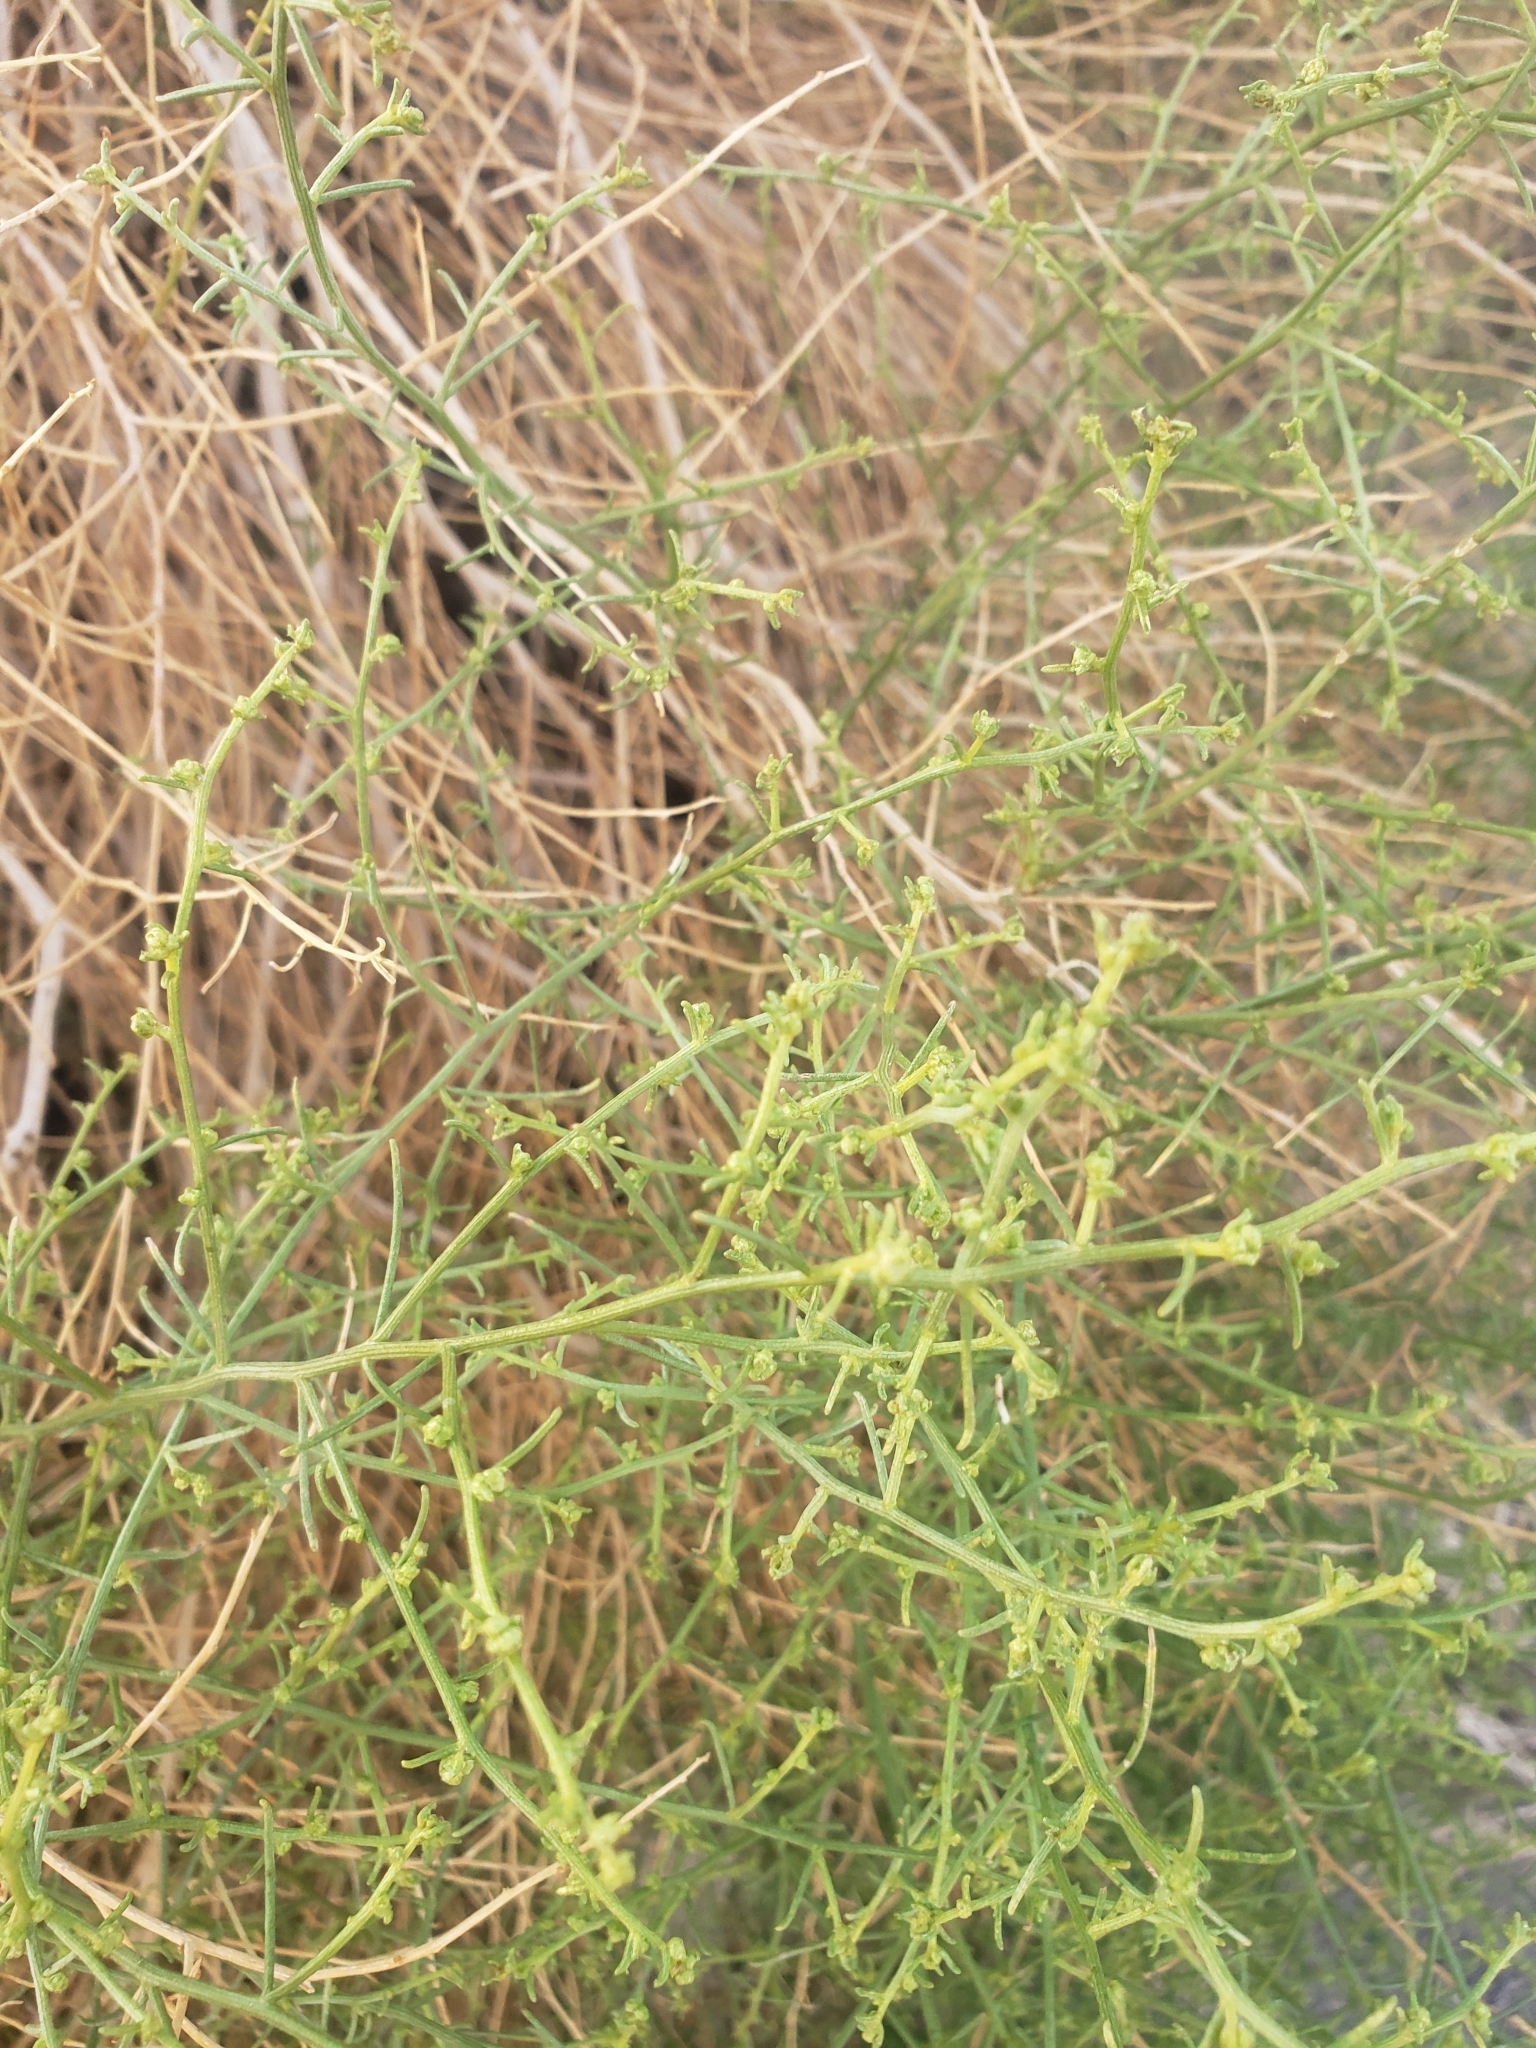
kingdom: Plantae
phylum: Tracheophyta
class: Magnoliopsida
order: Asterales
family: Asteraceae
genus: Ambrosia
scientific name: Ambrosia salsola
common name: Burrobrush
